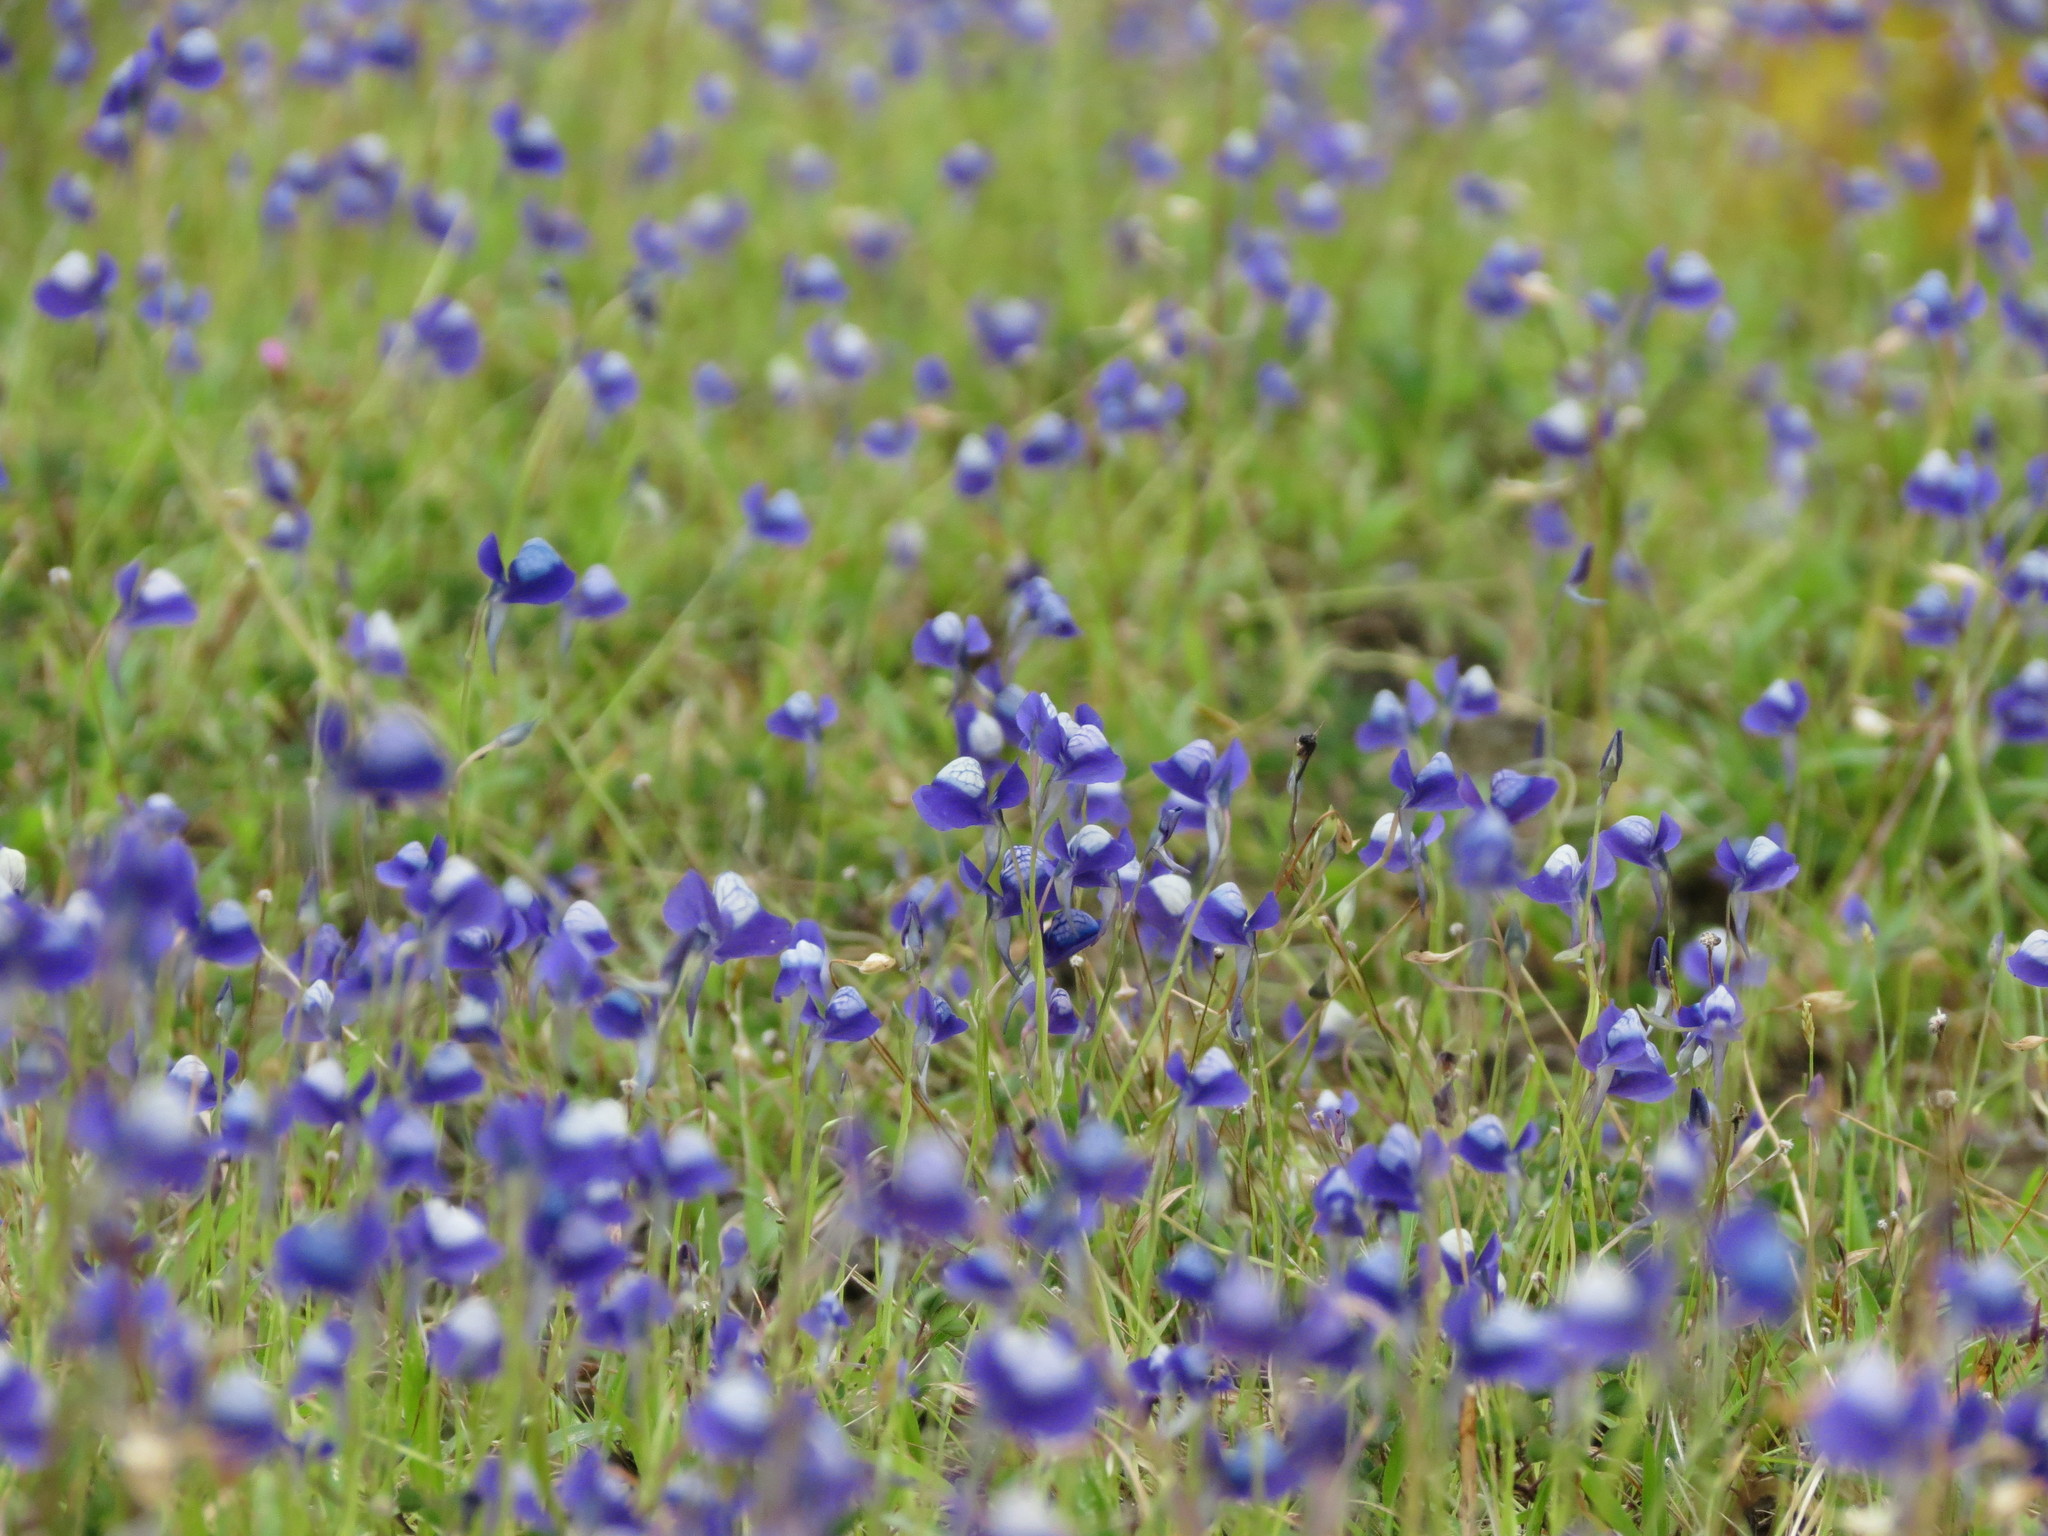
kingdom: Plantae
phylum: Tracheophyta
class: Magnoliopsida
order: Lamiales
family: Lentibulariaceae
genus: Utricularia
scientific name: Utricularia reticulata
